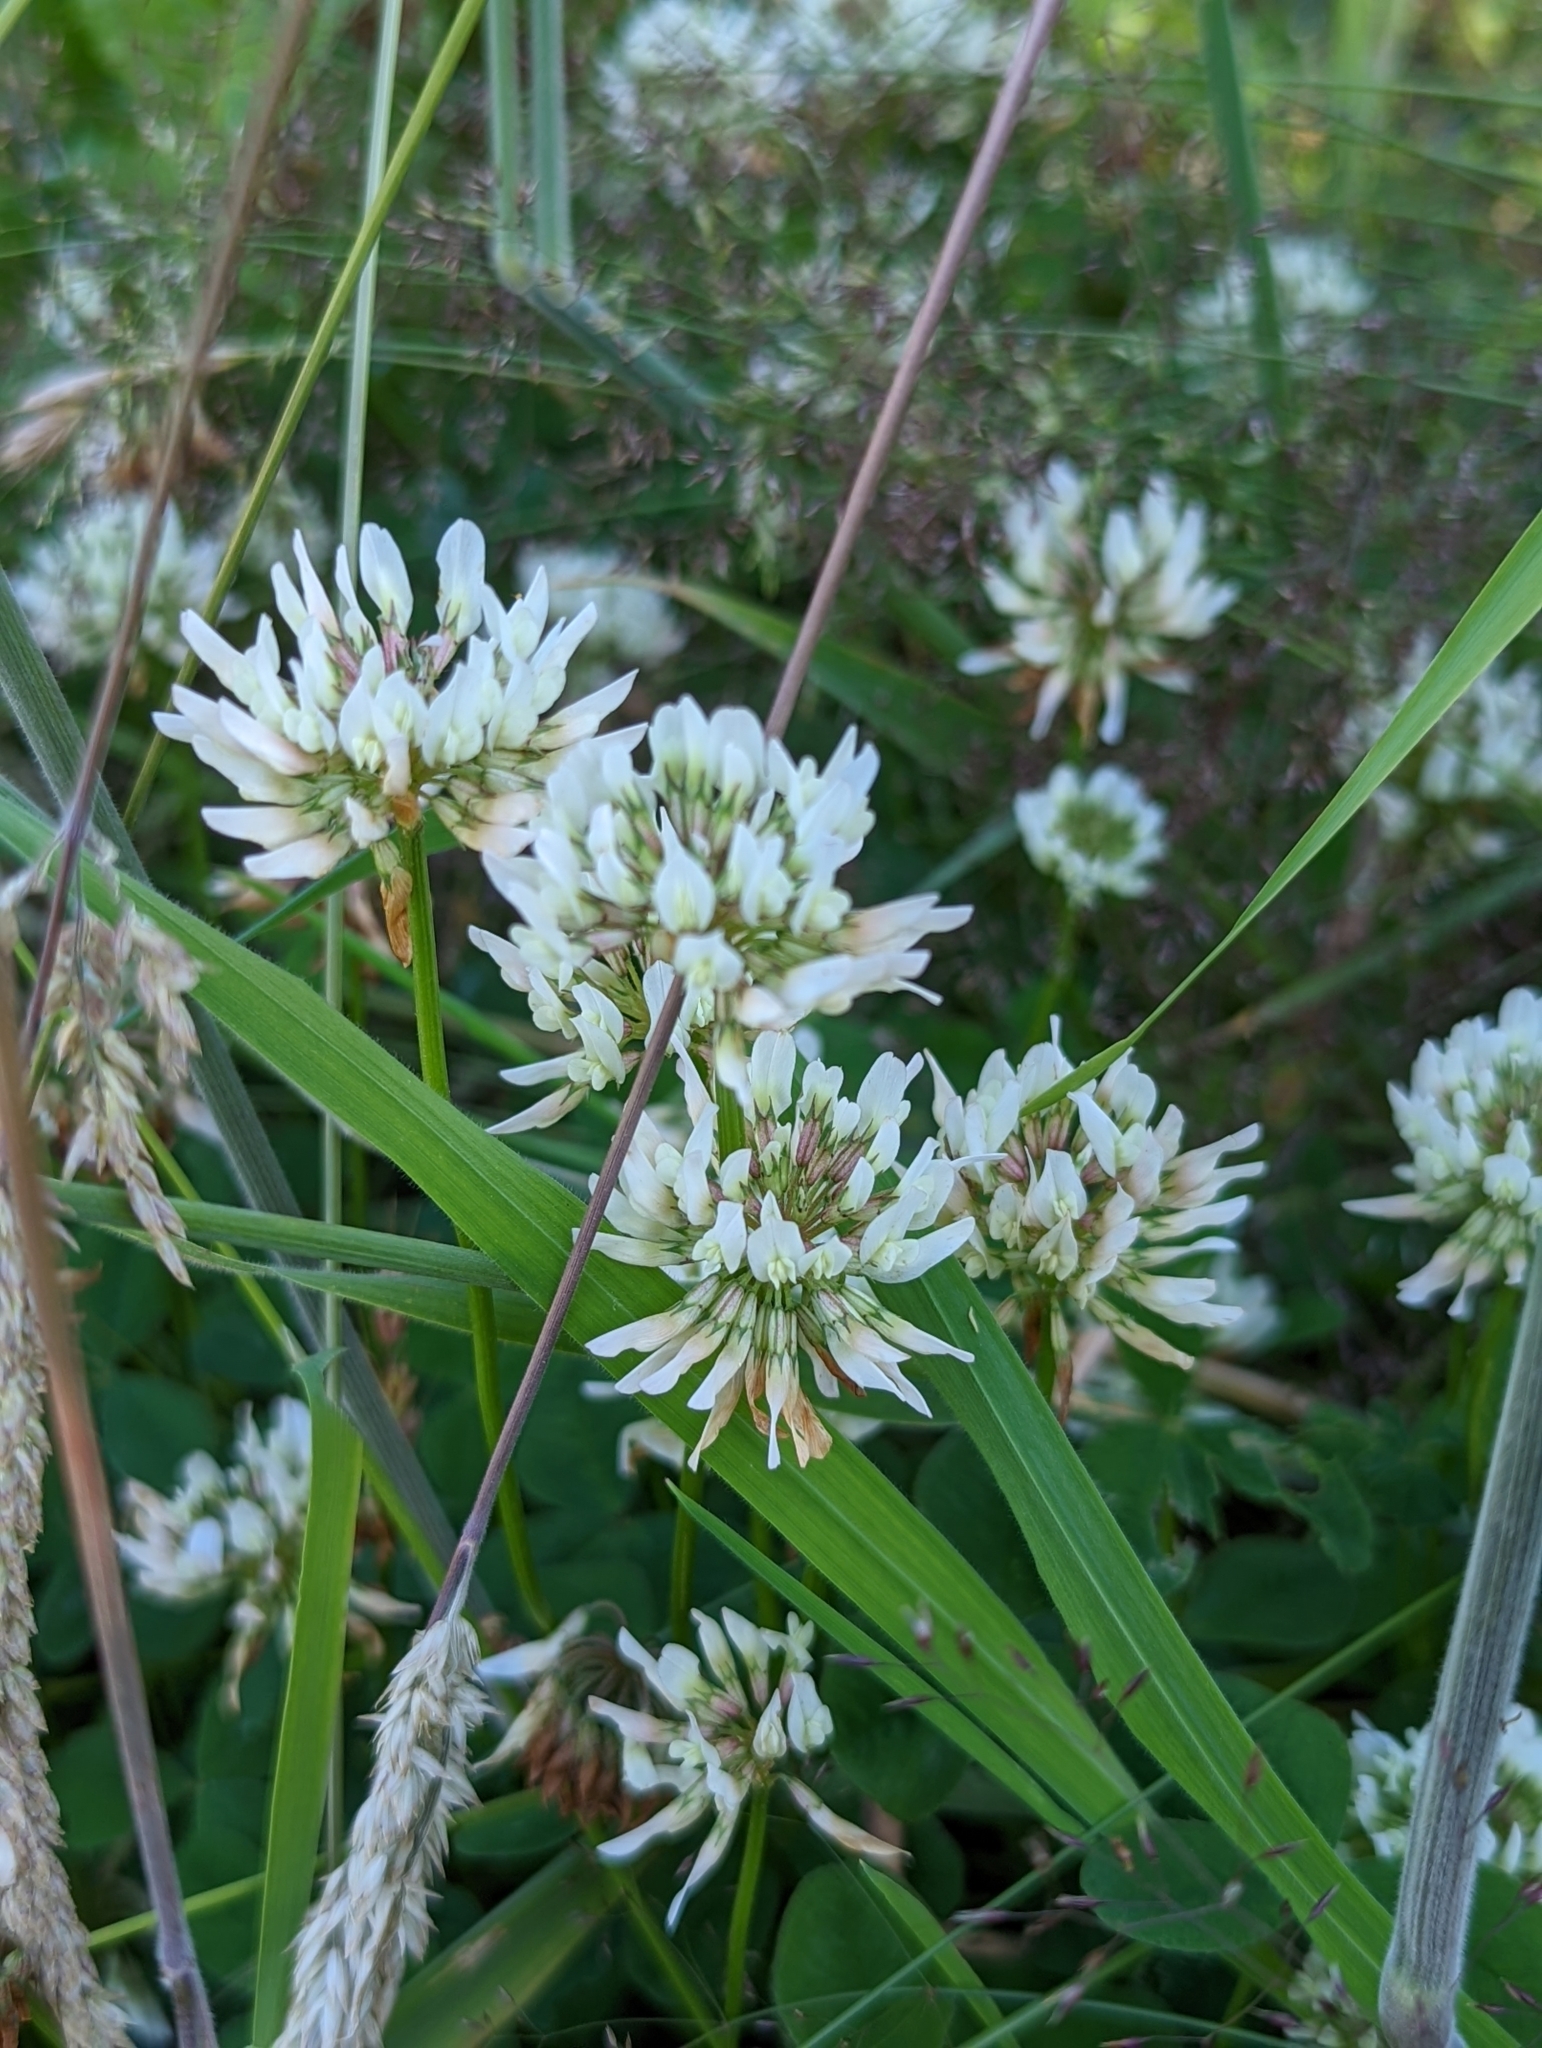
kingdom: Plantae
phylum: Tracheophyta
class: Magnoliopsida
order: Fabales
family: Fabaceae
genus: Trifolium
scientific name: Trifolium repens
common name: White clover
